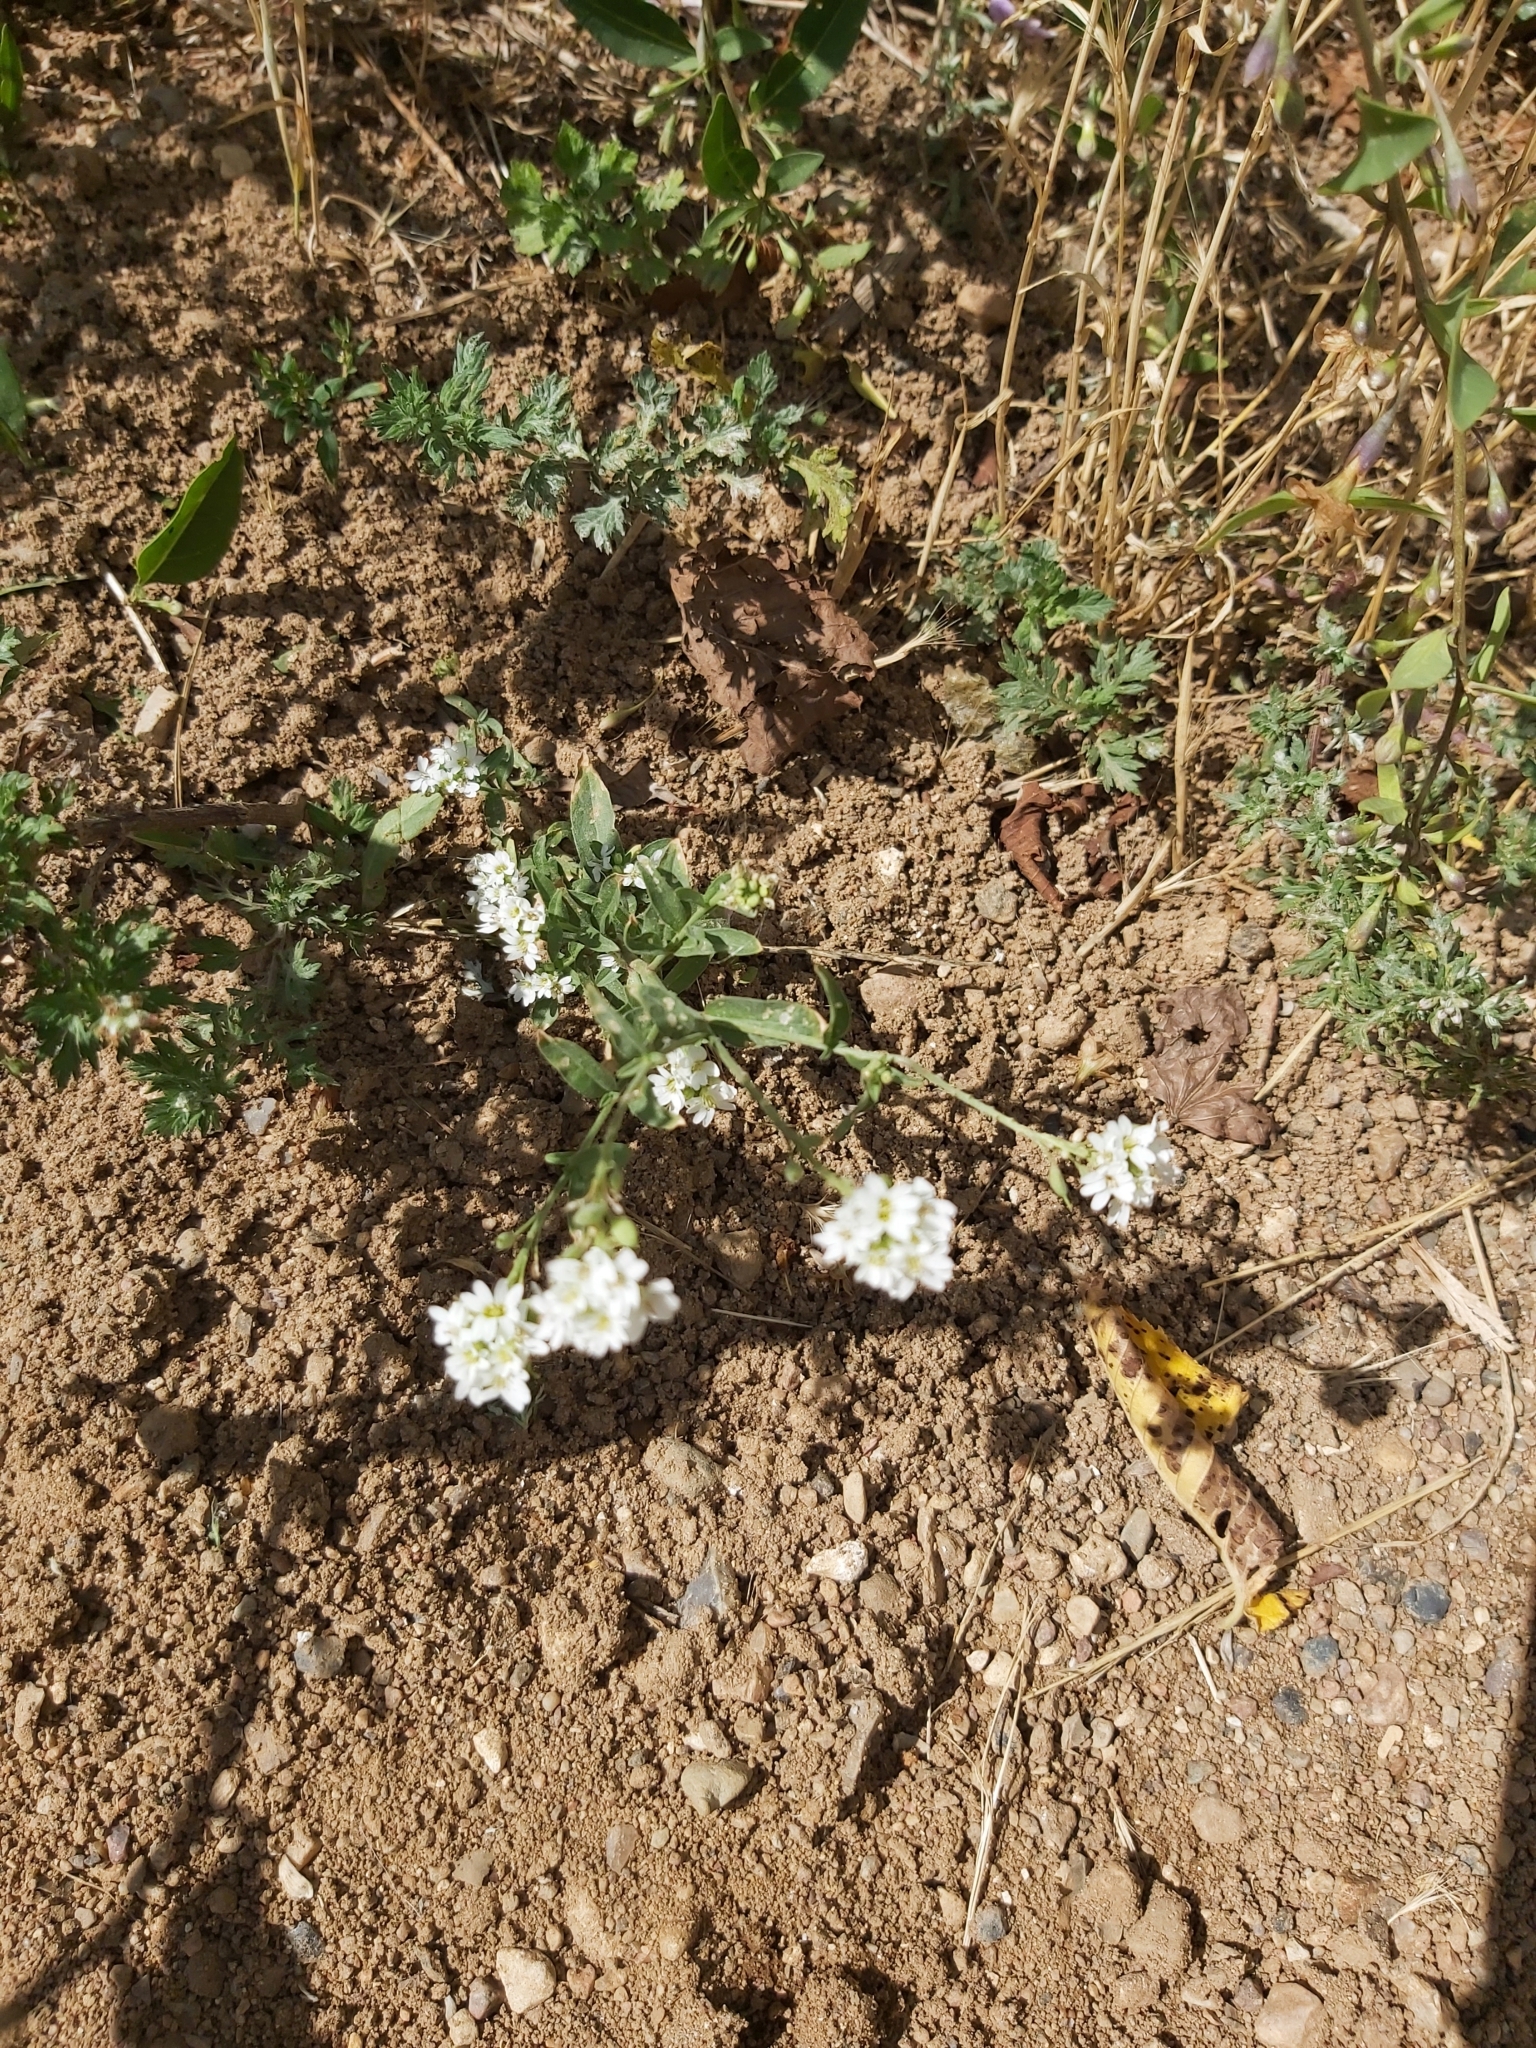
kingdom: Plantae
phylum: Tracheophyta
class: Magnoliopsida
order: Brassicales
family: Brassicaceae
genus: Berteroa
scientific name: Berteroa incana
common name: Hoary alison
